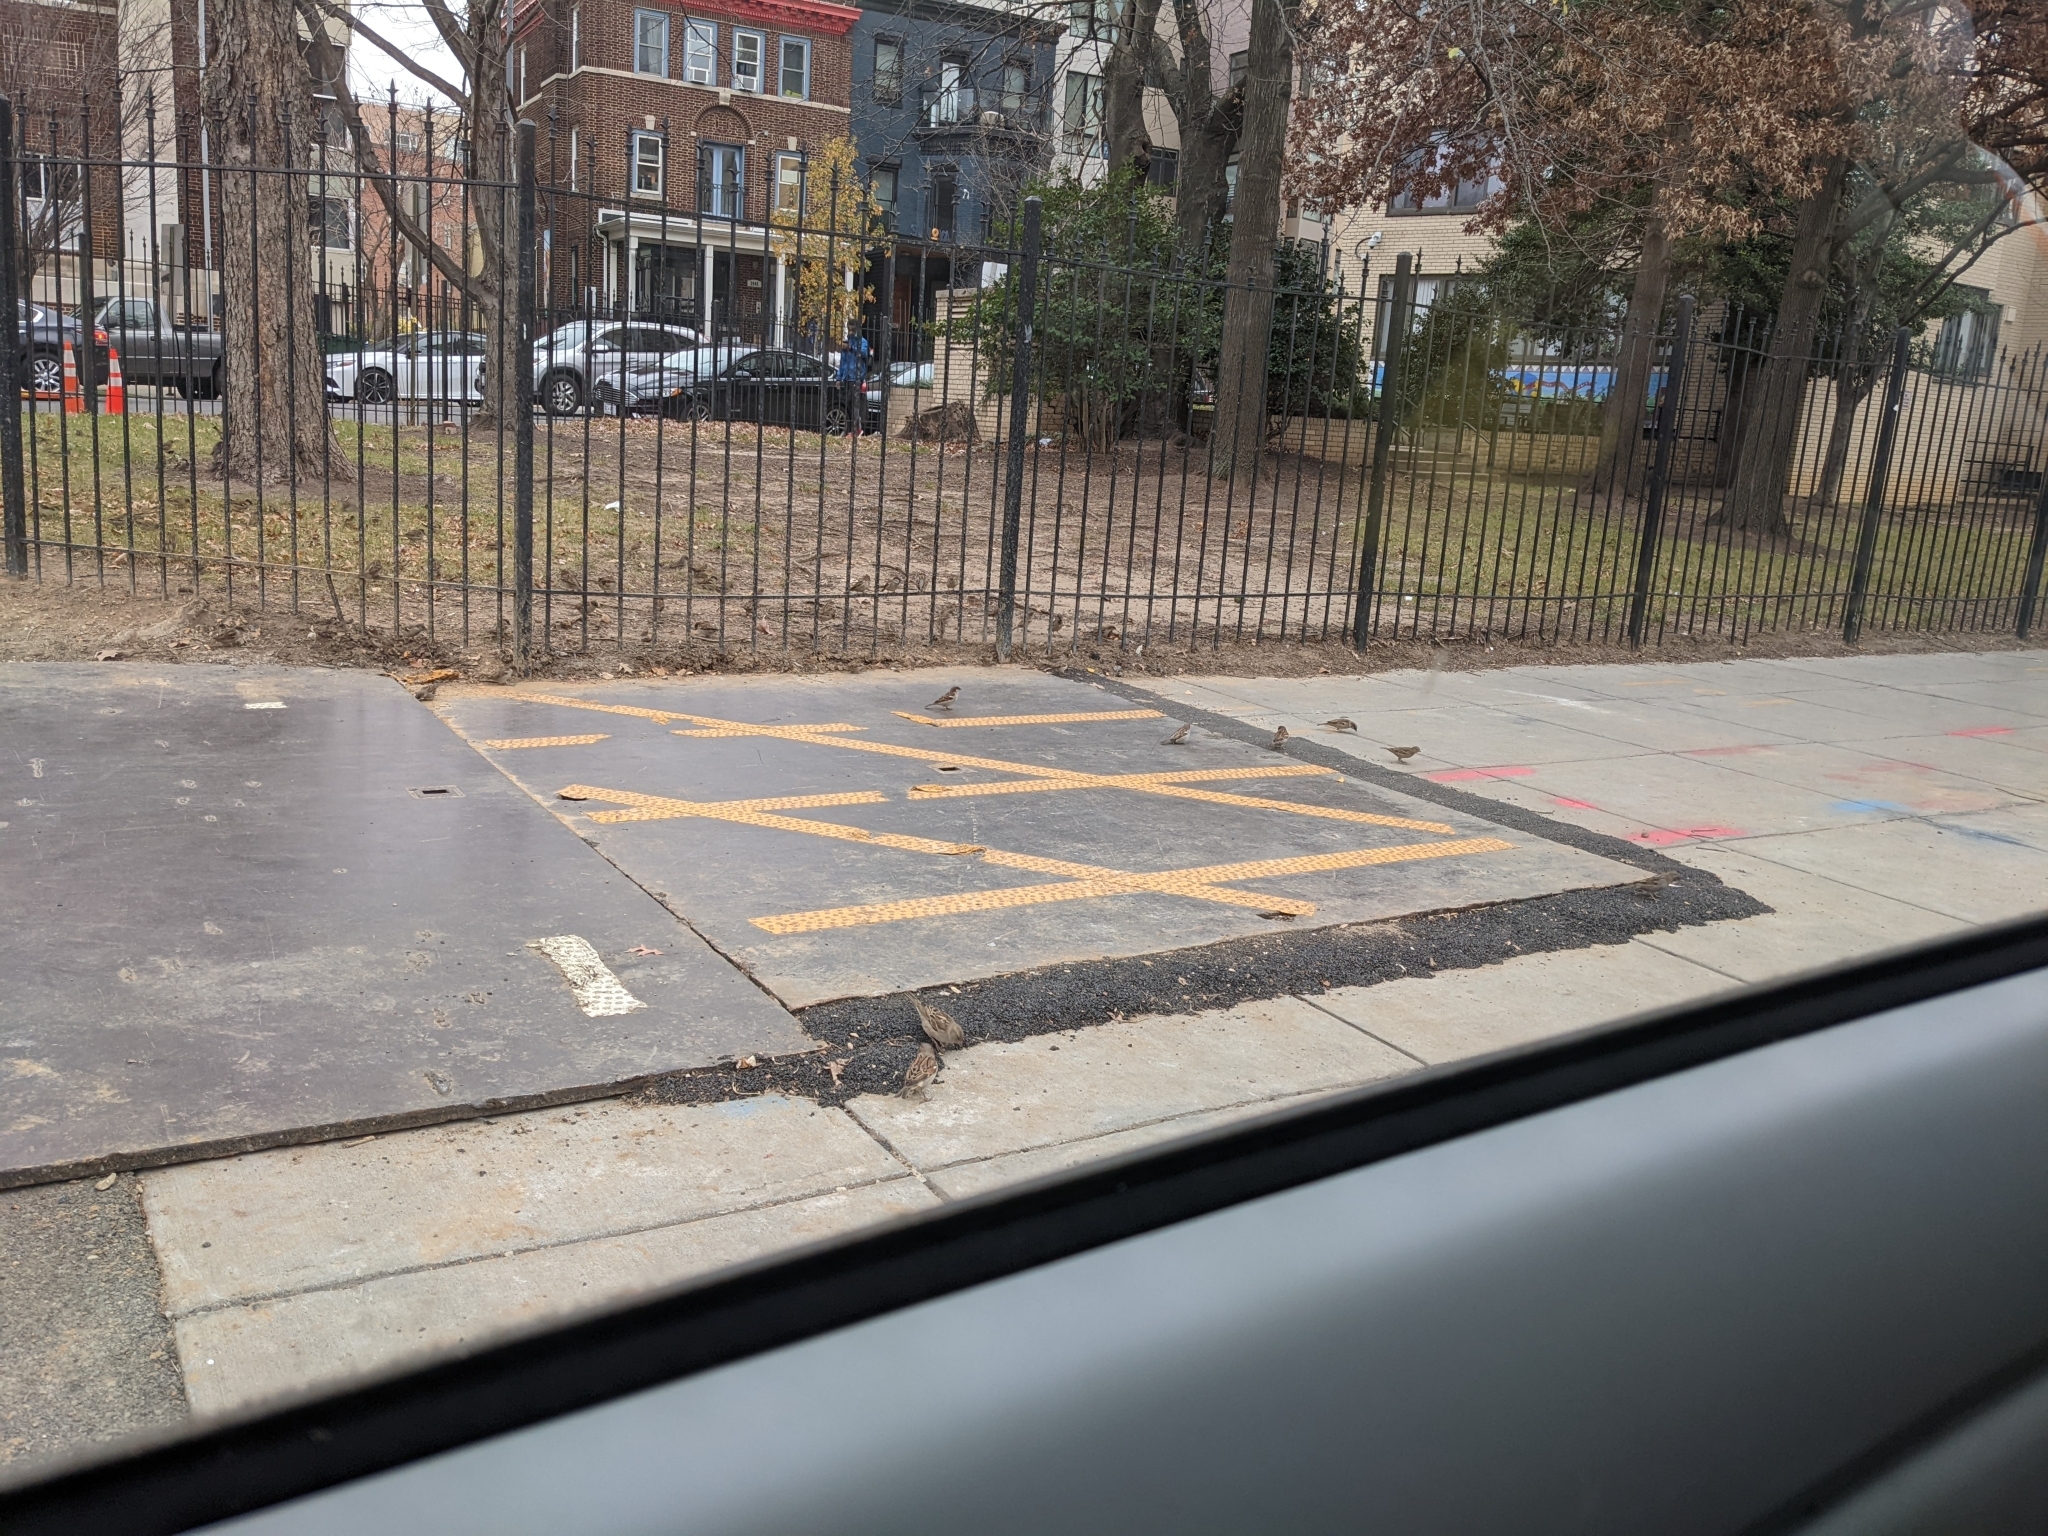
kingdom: Animalia
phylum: Chordata
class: Aves
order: Passeriformes
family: Passeridae
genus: Passer
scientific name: Passer domesticus
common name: House sparrow
